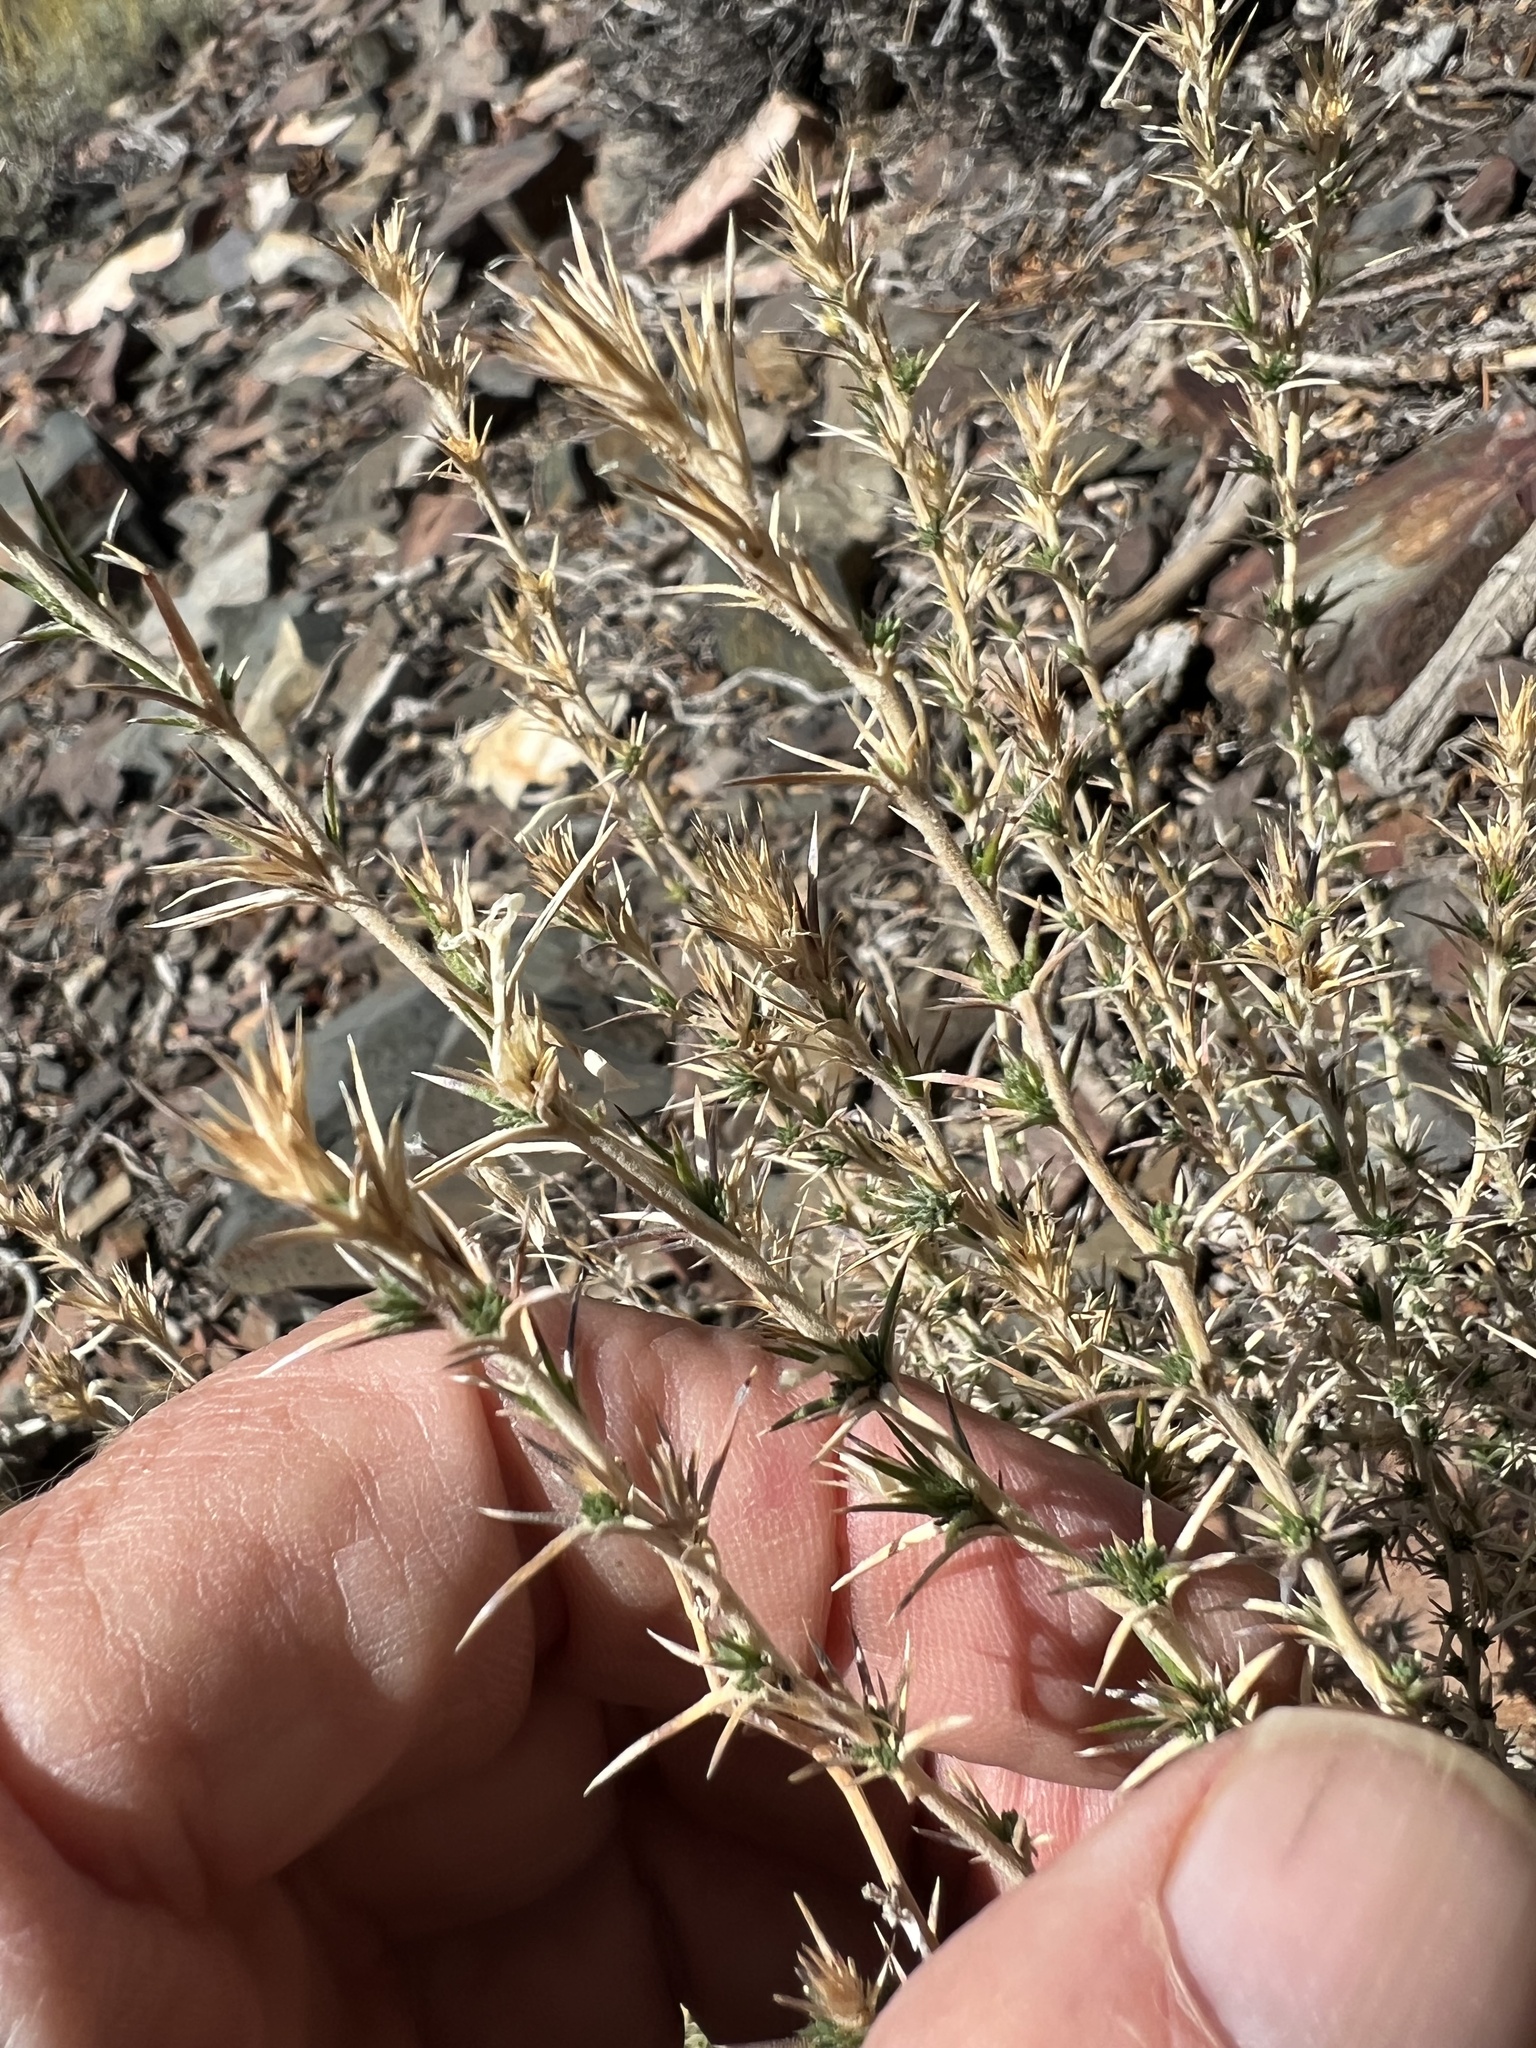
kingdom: Plantae
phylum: Tracheophyta
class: Magnoliopsida
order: Ericales
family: Polemoniaceae
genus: Linanthus
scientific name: Linanthus pungens
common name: Granite prickly phlox
